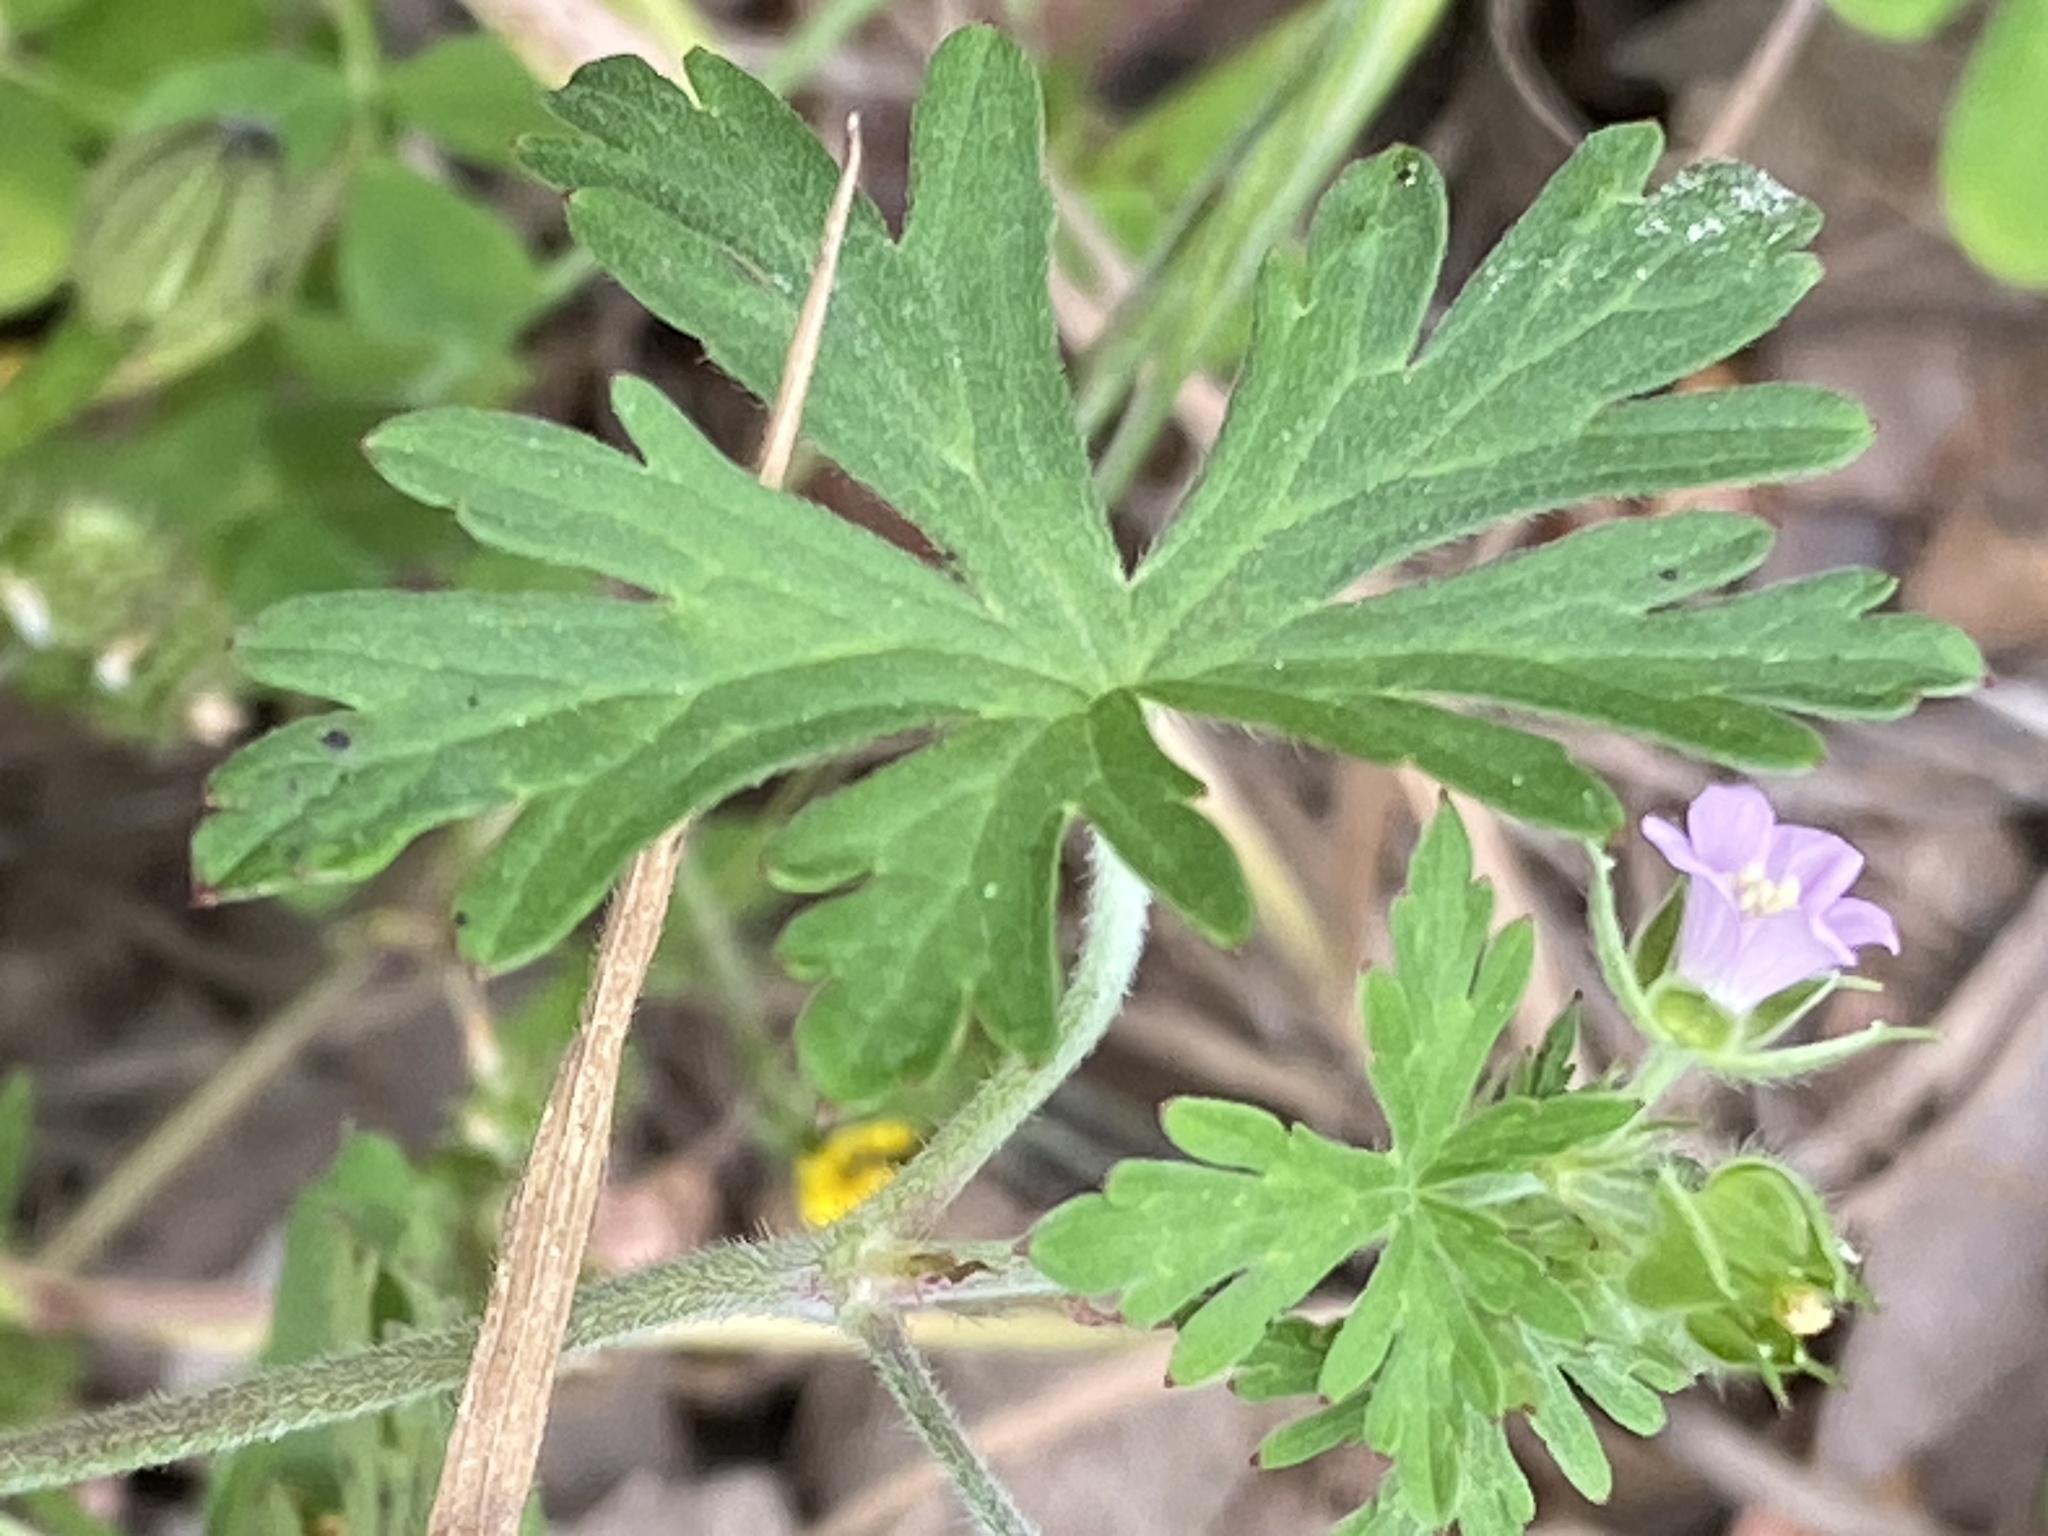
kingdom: Plantae
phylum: Tracheophyta
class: Magnoliopsida
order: Geraniales
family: Geraniaceae
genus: Geranium
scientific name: Geranium carolinianum
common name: Carolina crane's-bill
